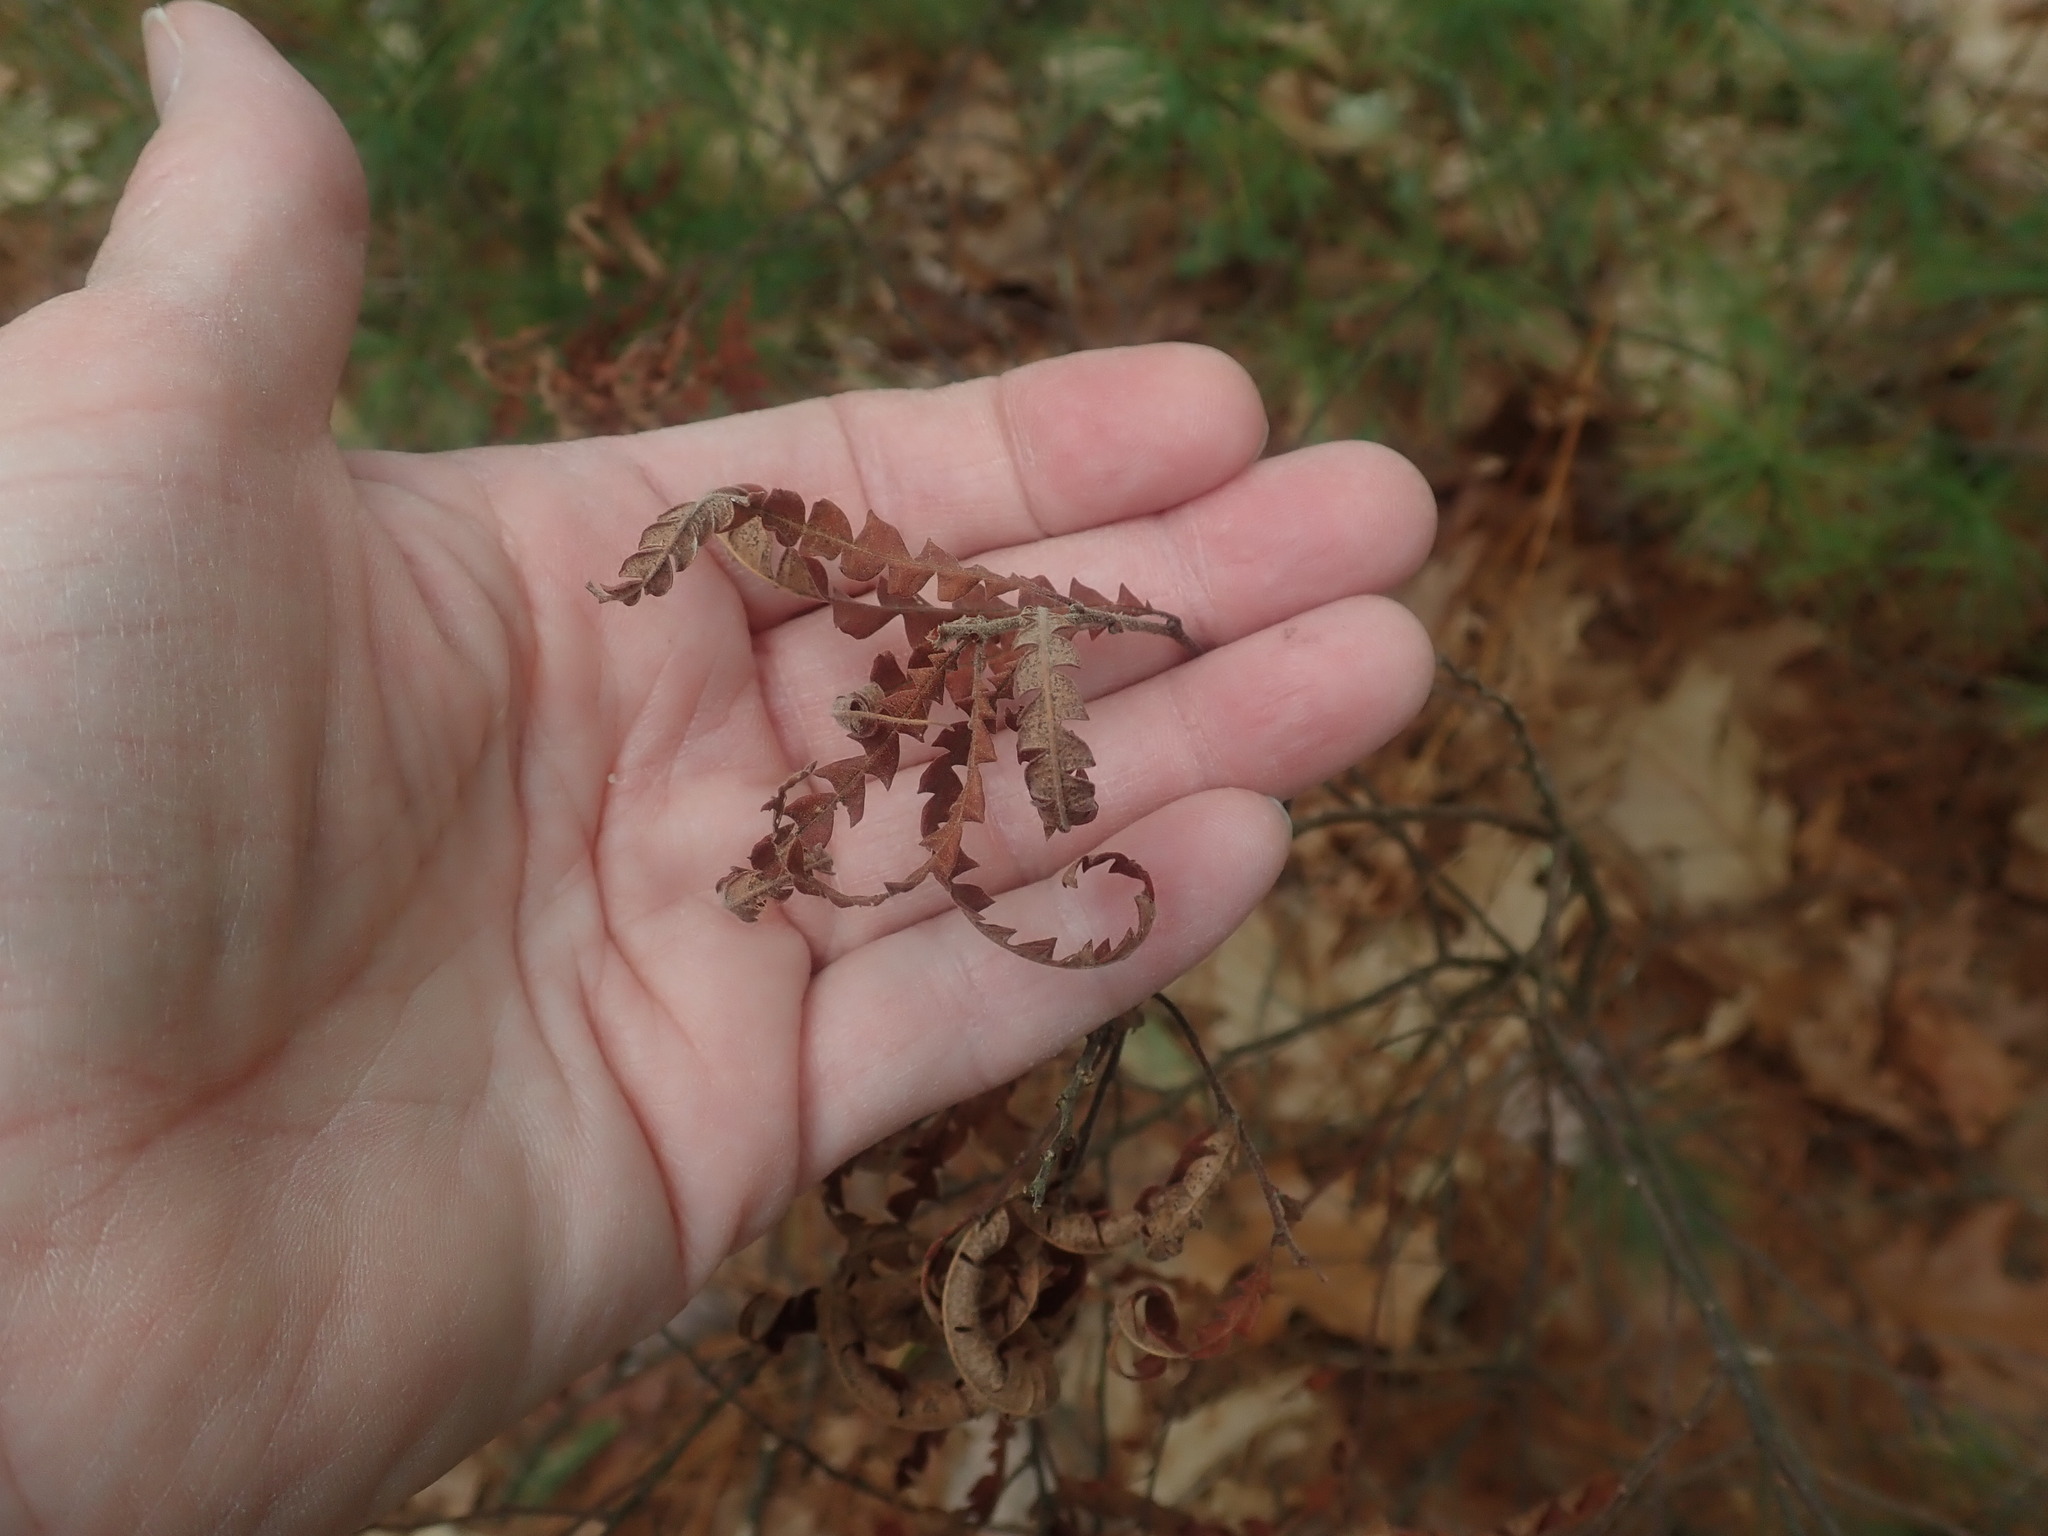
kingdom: Plantae
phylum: Tracheophyta
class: Magnoliopsida
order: Fagales
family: Myricaceae
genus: Comptonia
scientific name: Comptonia peregrina
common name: Sweet-fern
